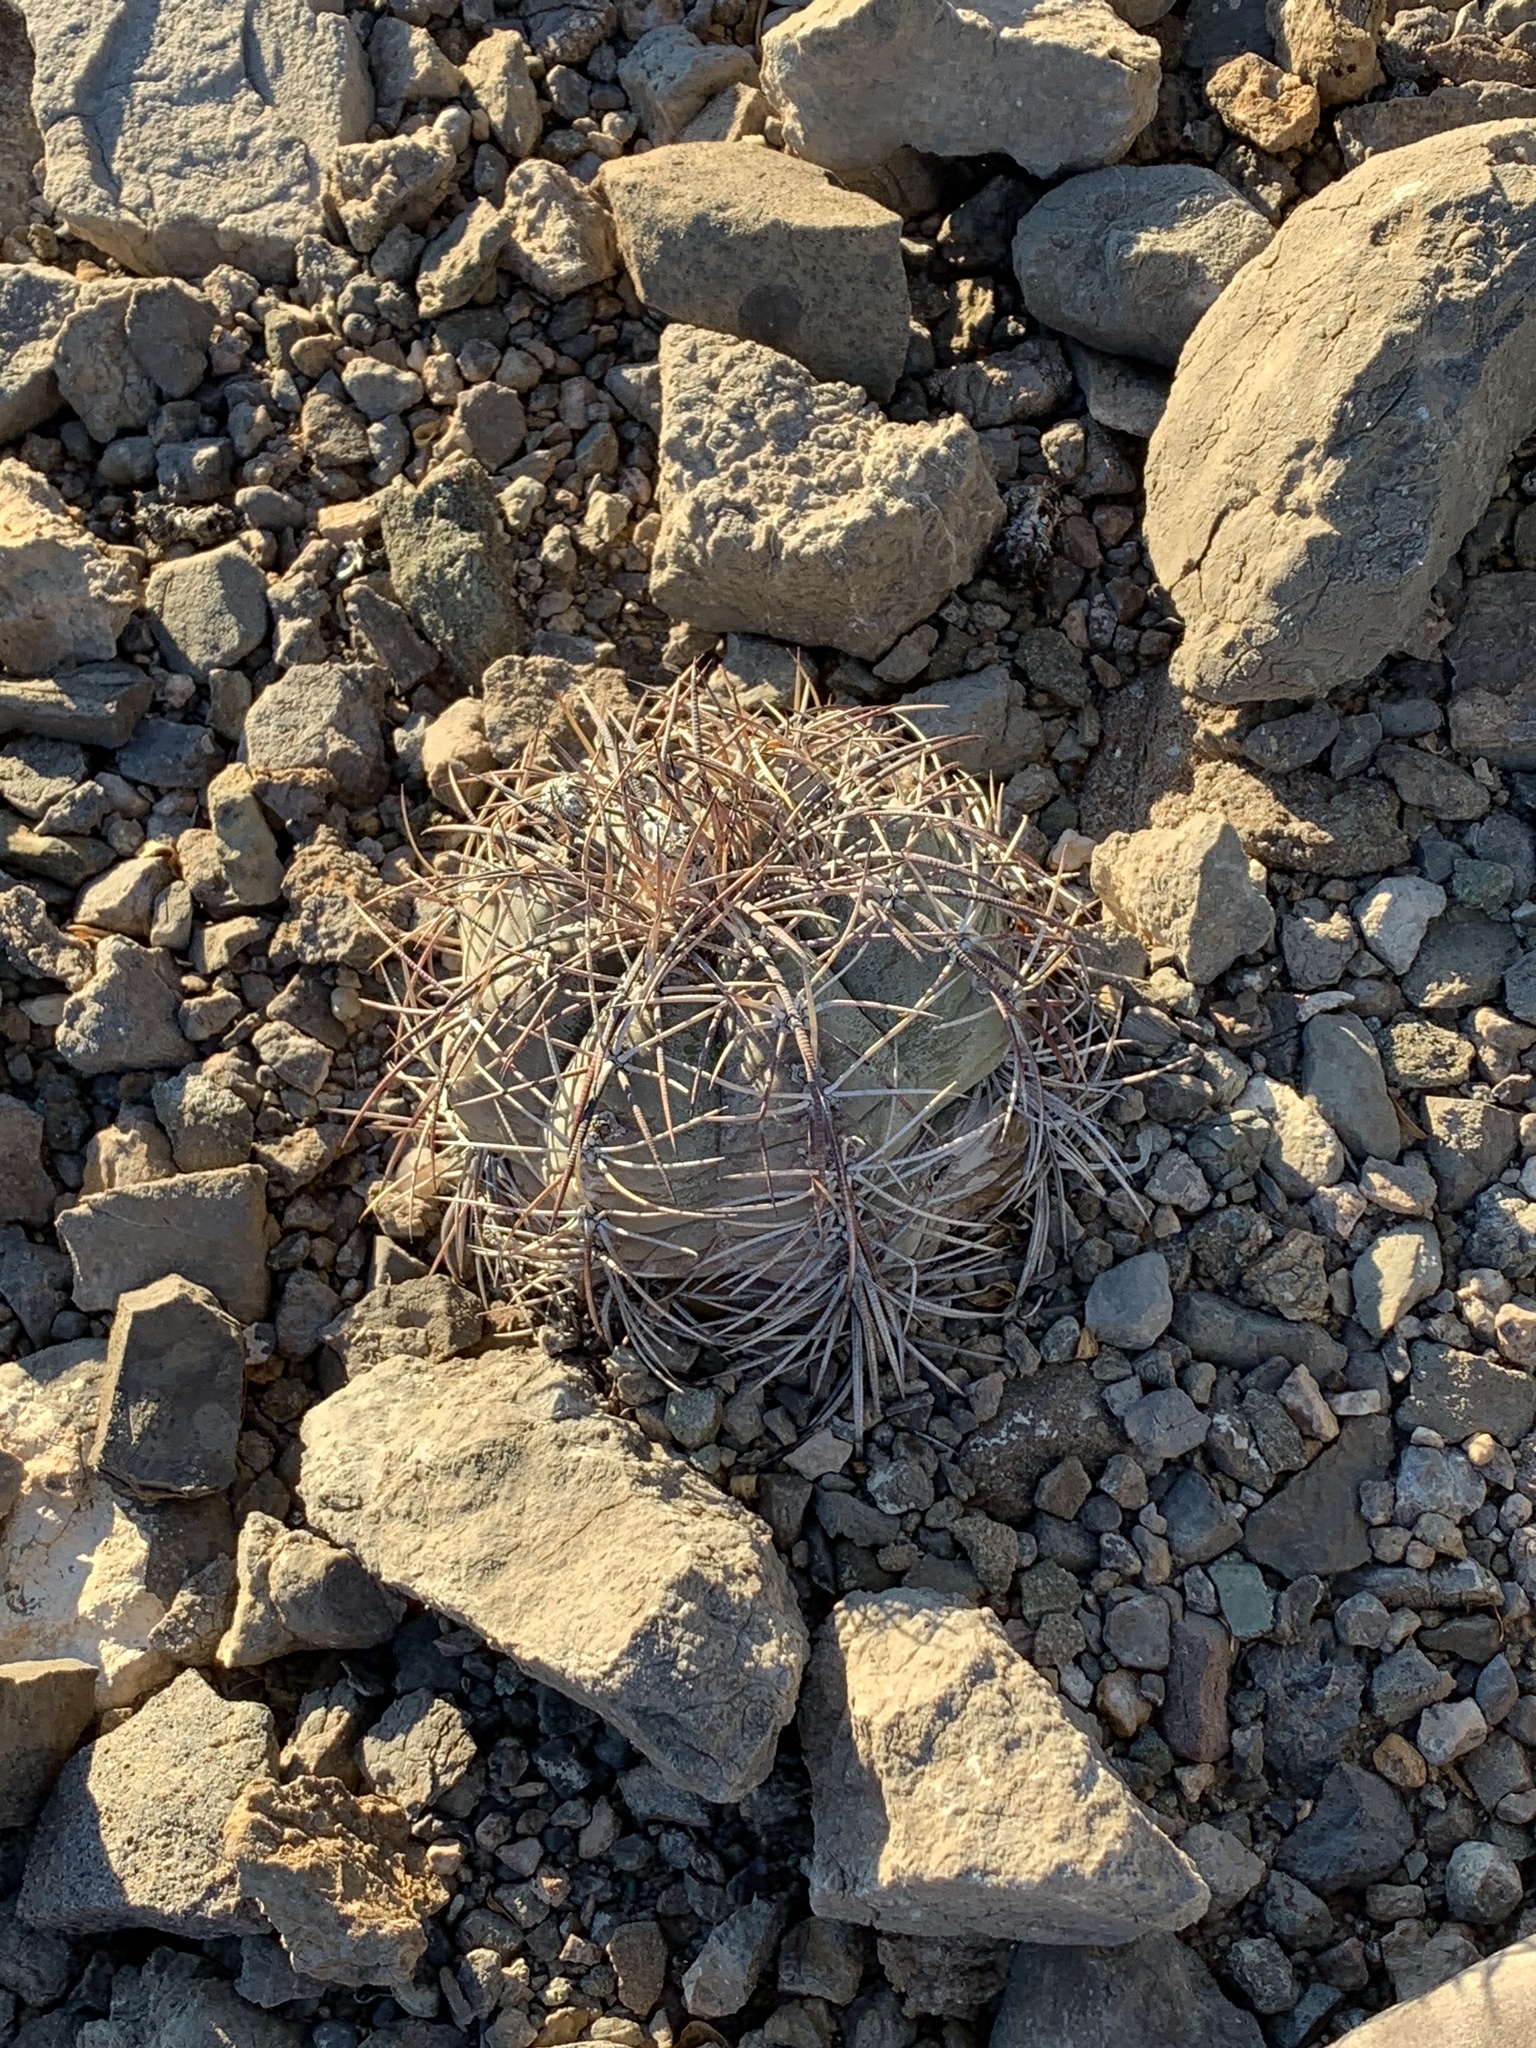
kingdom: Plantae
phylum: Tracheophyta
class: Magnoliopsida
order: Caryophyllales
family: Cactaceae
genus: Echinocactus
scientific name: Echinocactus horizonthalonius
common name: Devilshead
